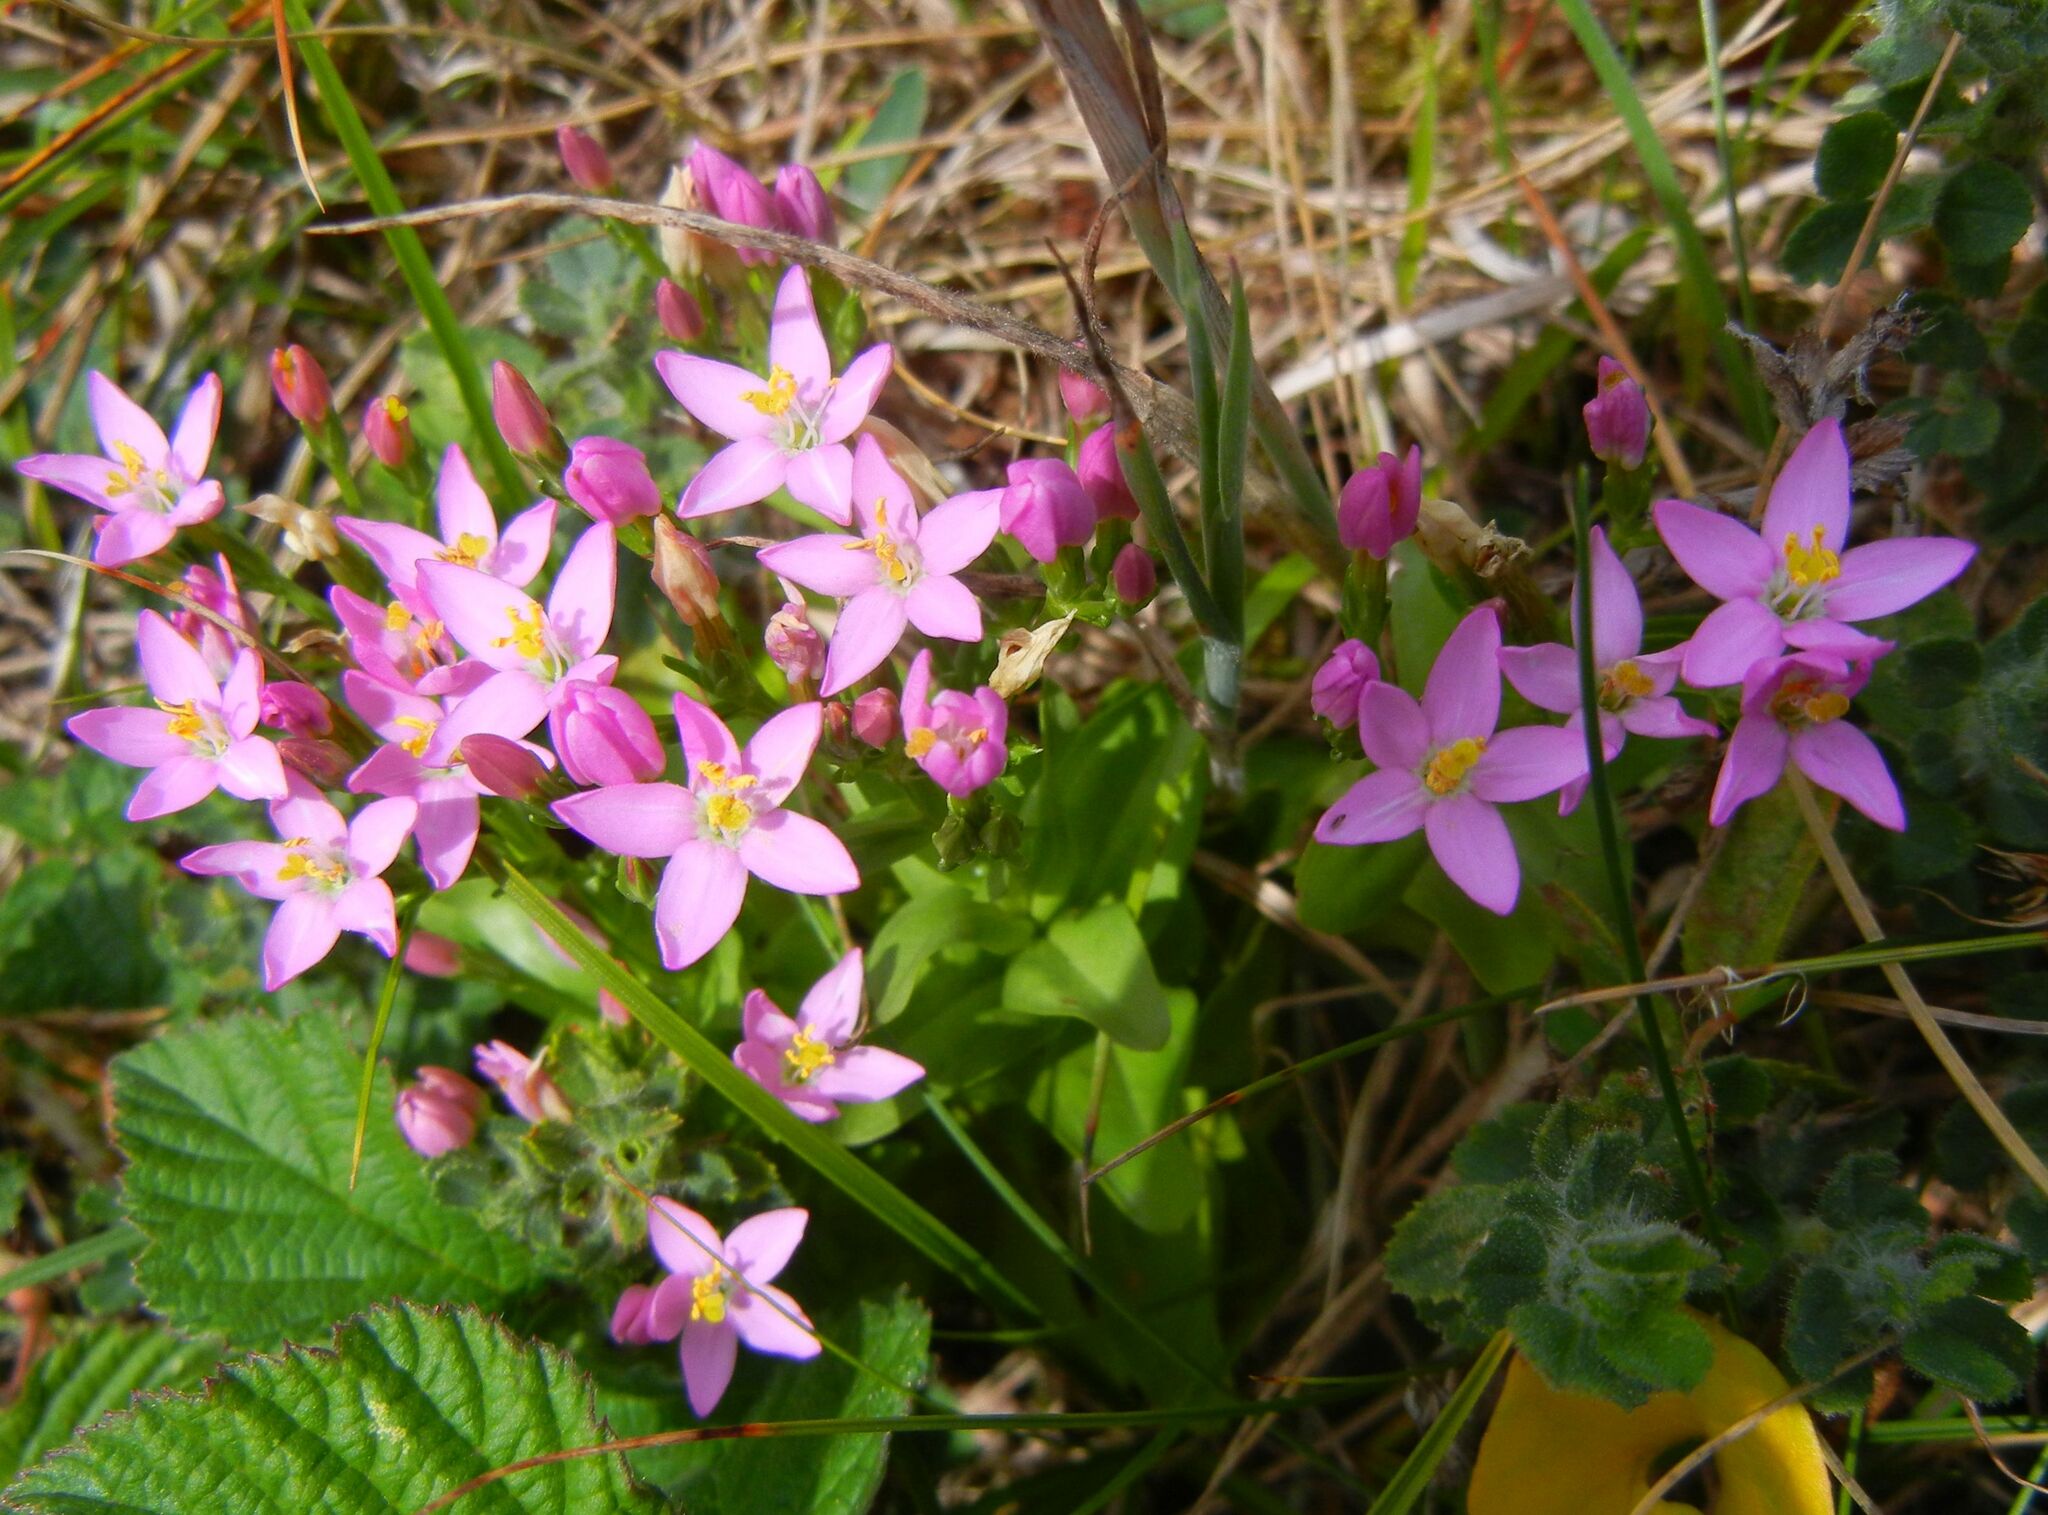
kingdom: Plantae
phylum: Tracheophyta
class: Magnoliopsida
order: Gentianales
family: Gentianaceae
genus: Centaurium
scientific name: Centaurium erythraea
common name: Common centaury
